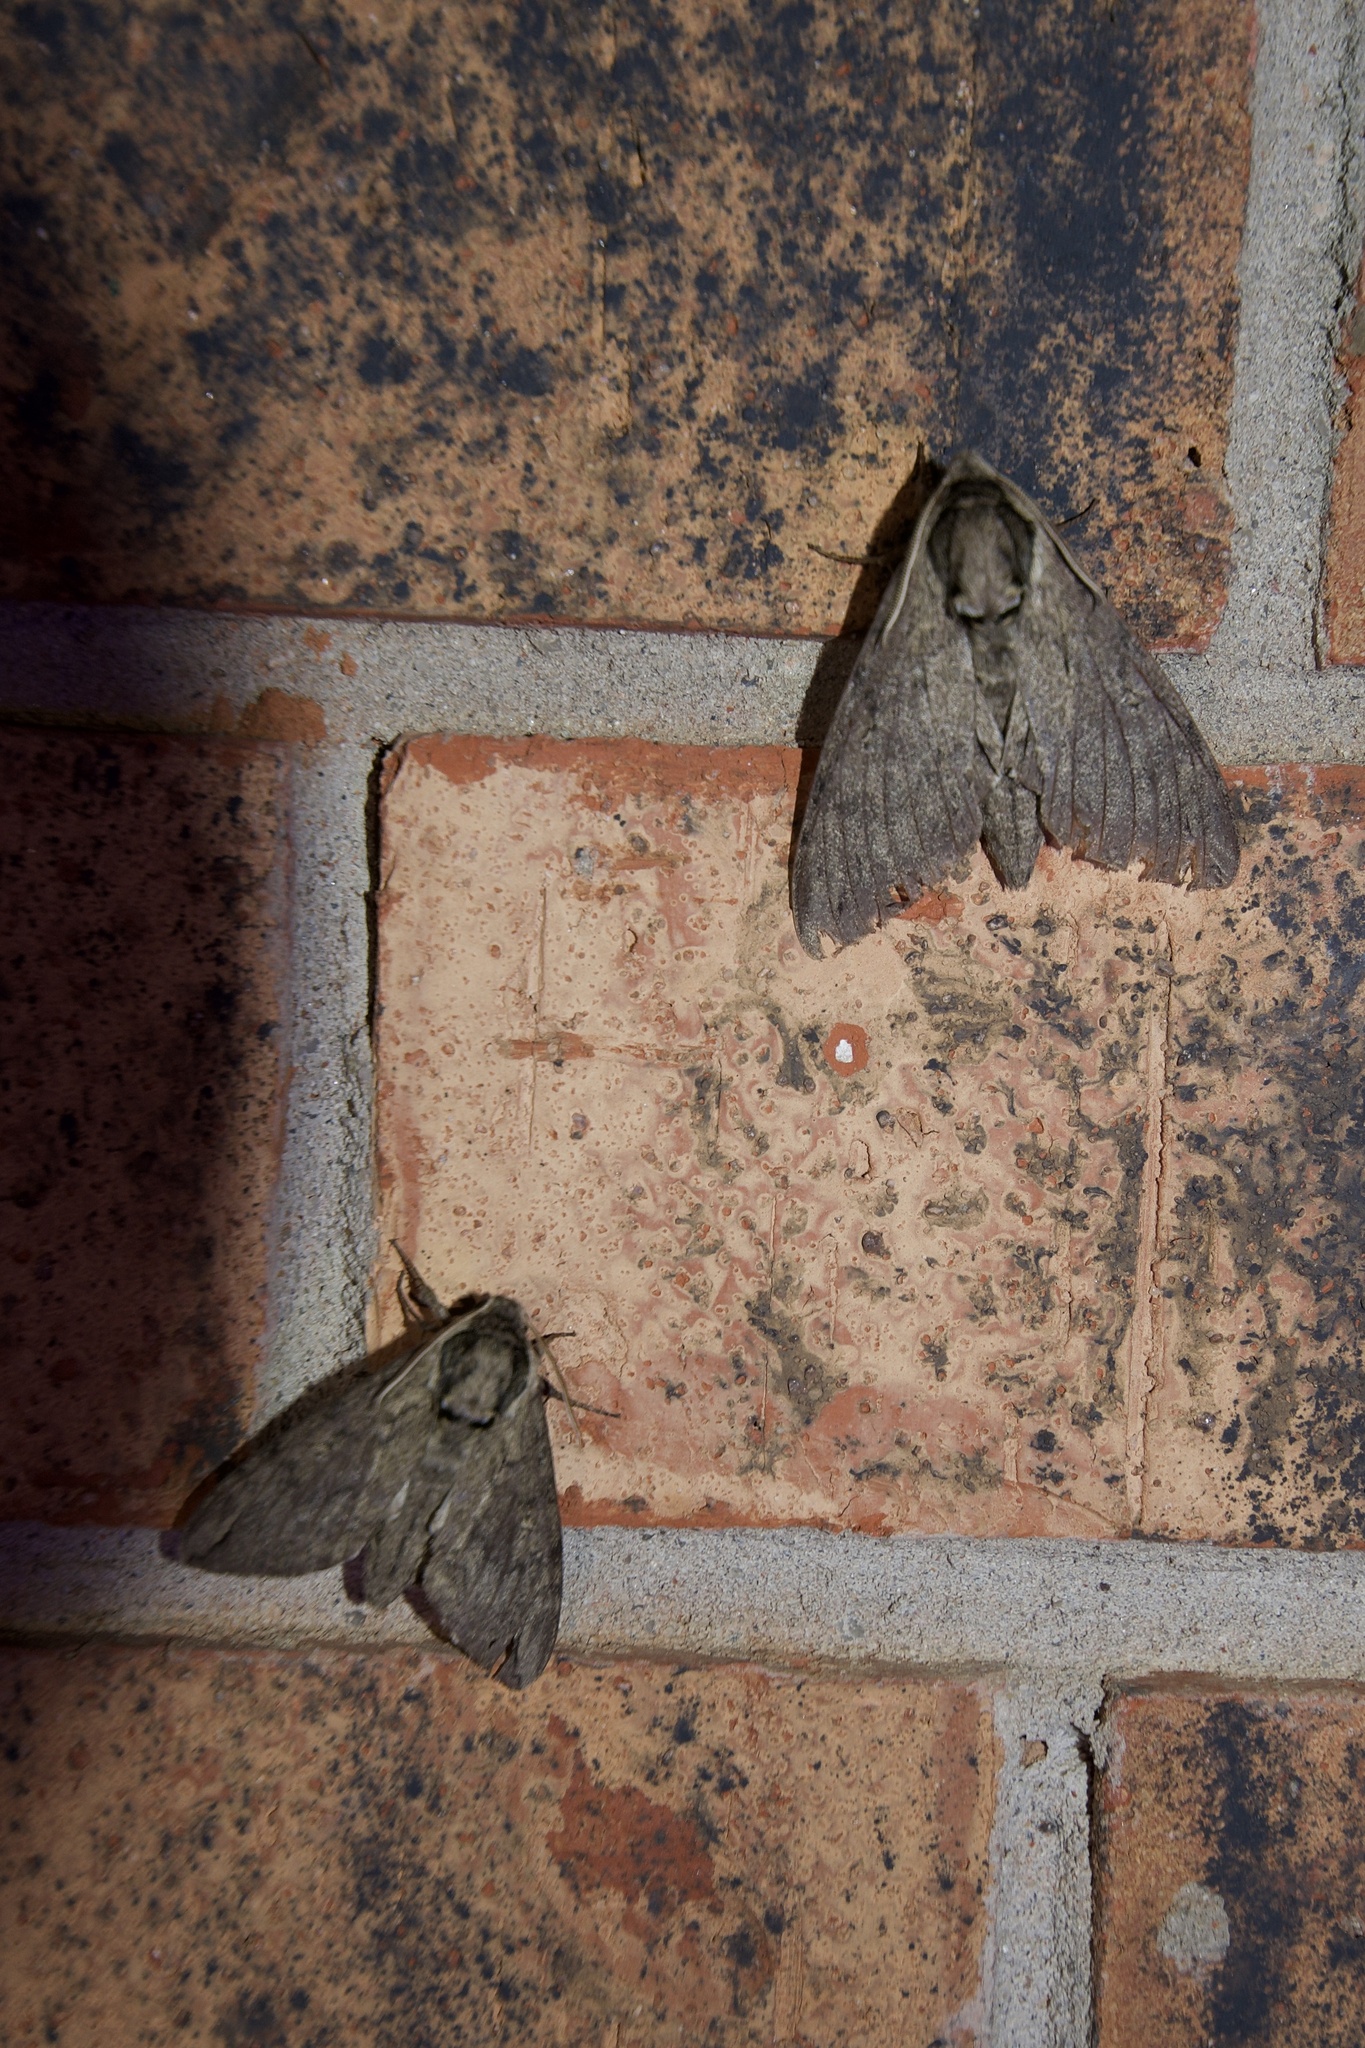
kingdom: Animalia
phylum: Arthropoda
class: Insecta
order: Lepidoptera
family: Sphingidae
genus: Ceratomia
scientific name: Ceratomia catalpae
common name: Catalpa hornworm
